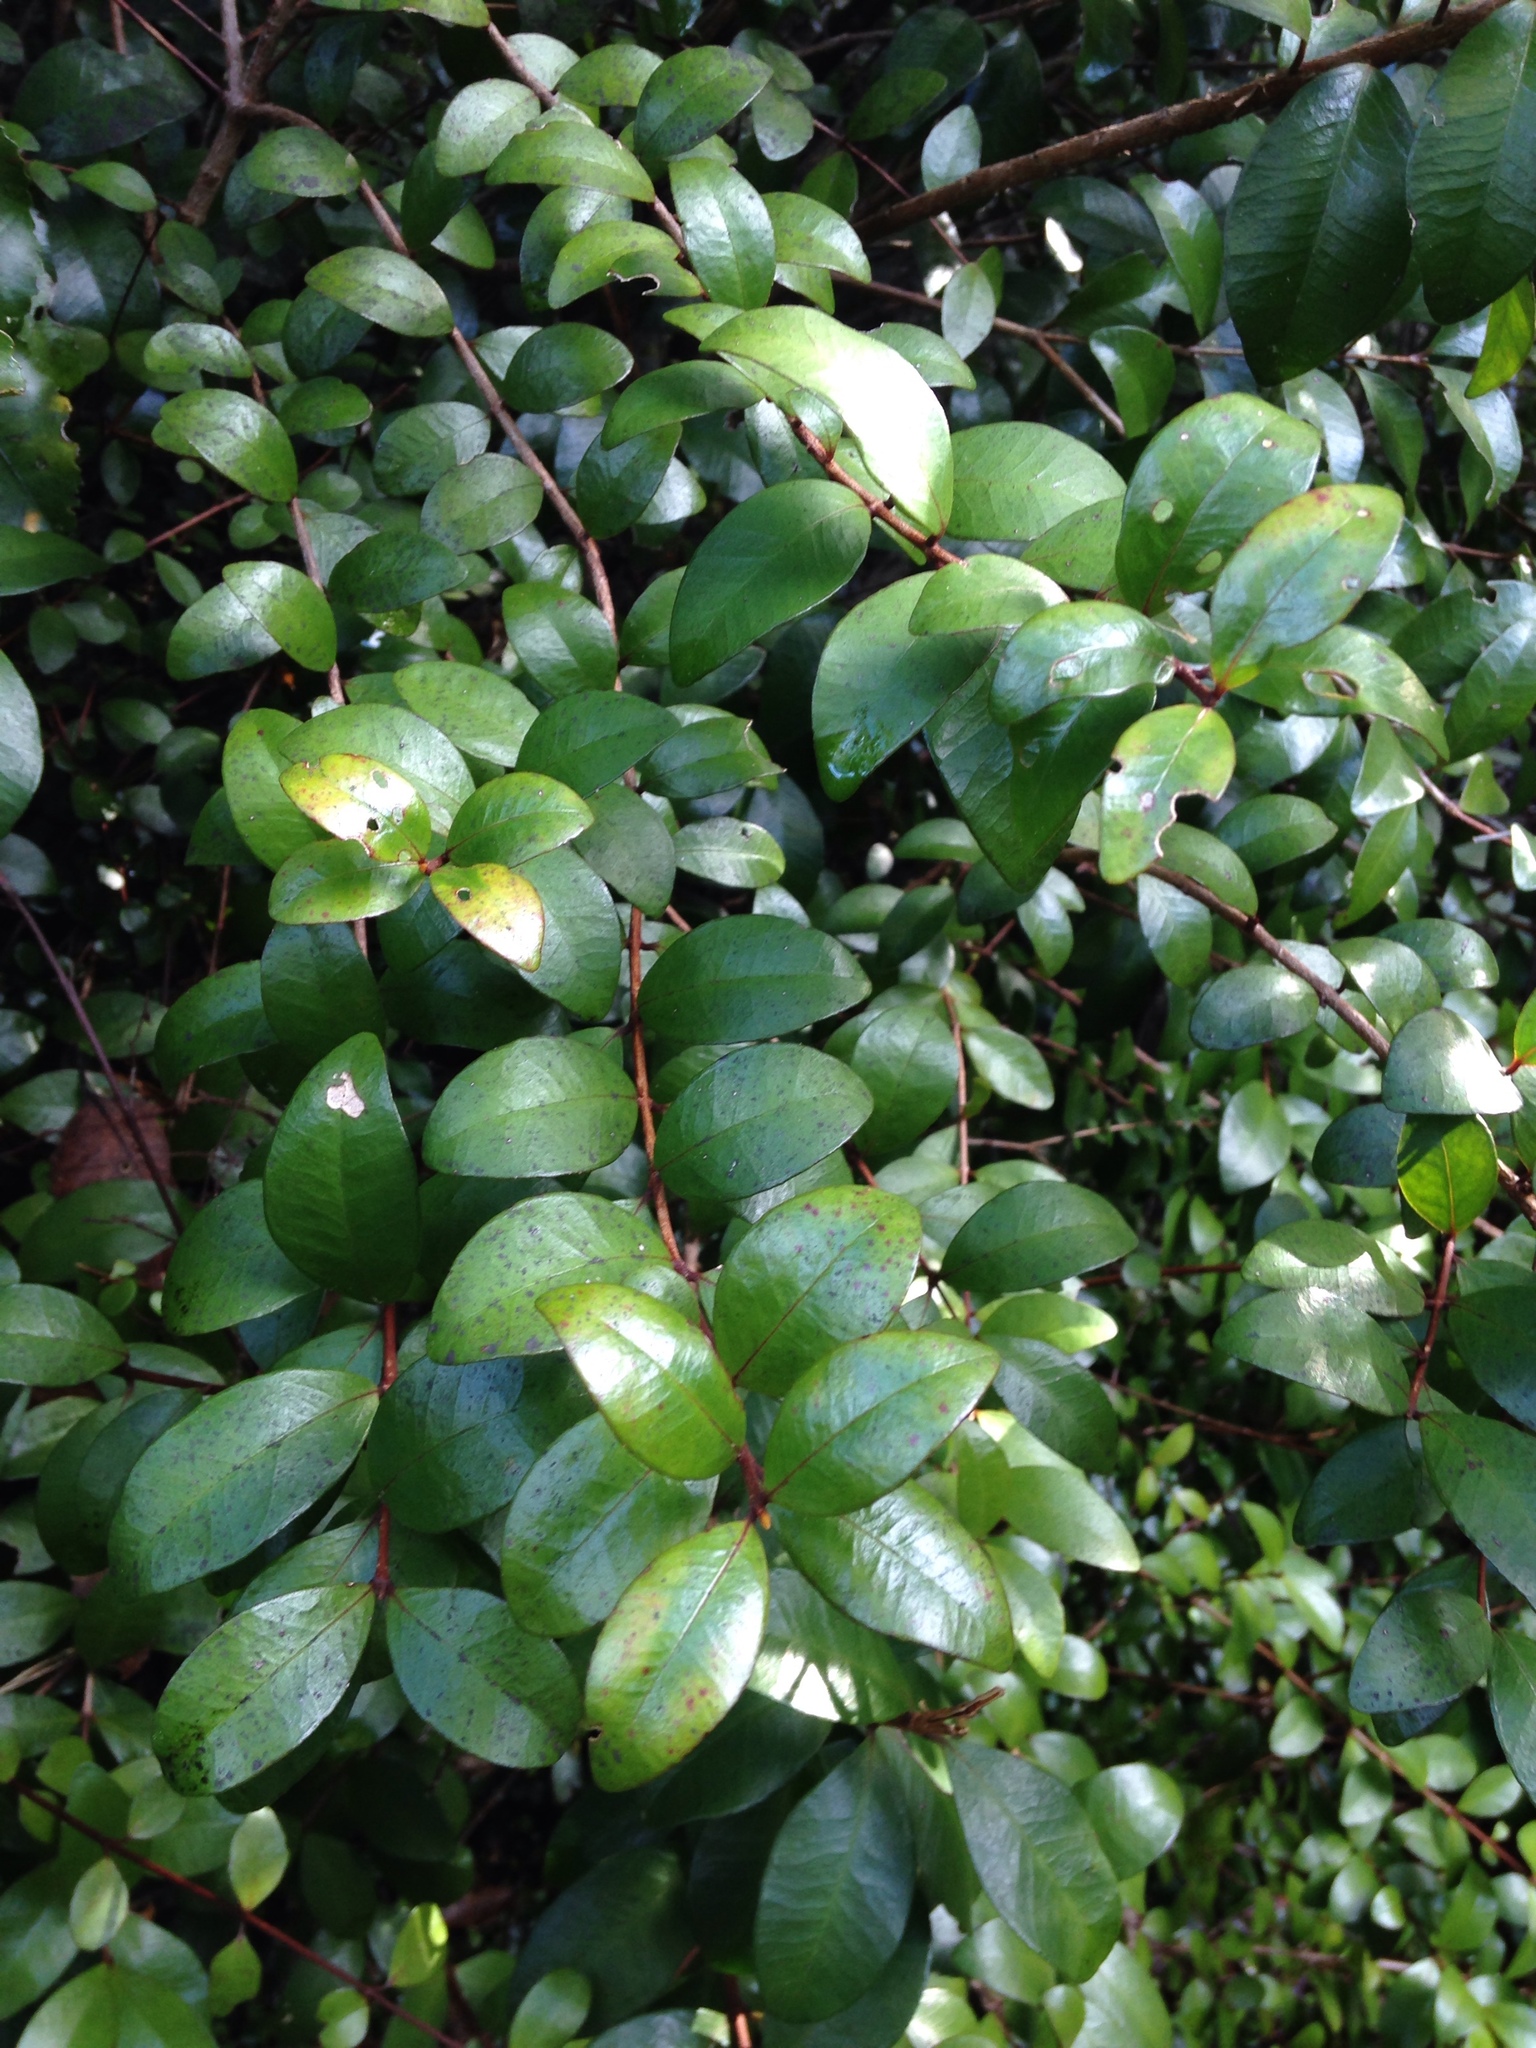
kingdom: Plantae
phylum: Tracheophyta
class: Magnoliopsida
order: Myrtales
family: Myrtaceae
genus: Metrosideros
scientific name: Metrosideros fulgens
